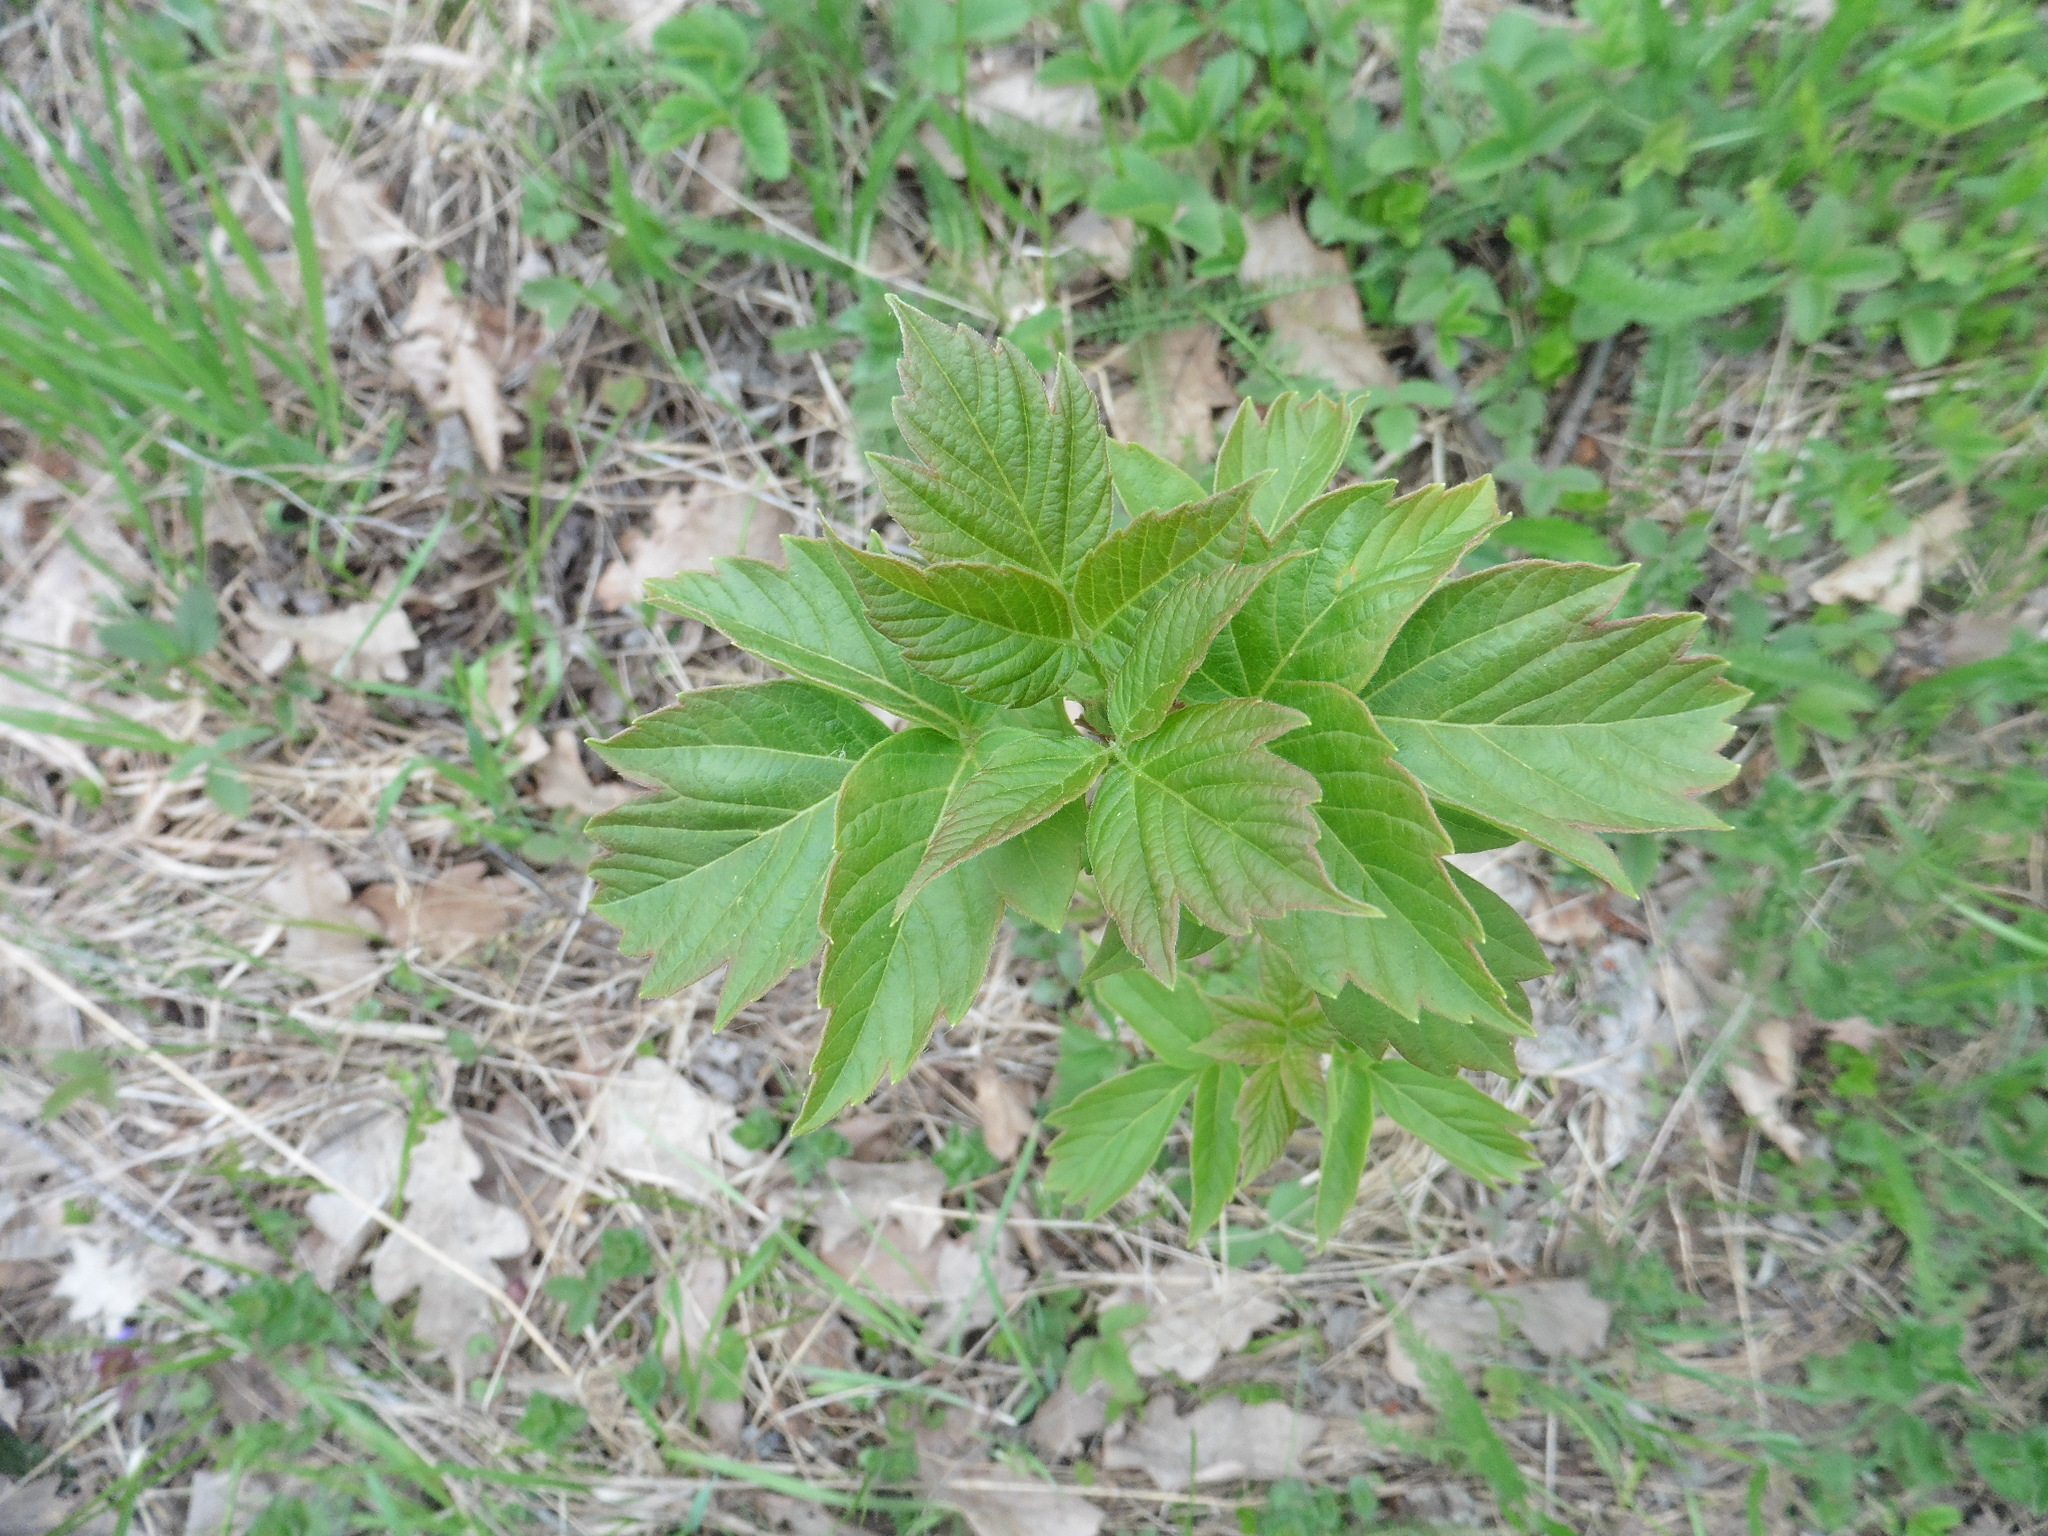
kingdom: Plantae
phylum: Tracheophyta
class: Magnoliopsida
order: Sapindales
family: Sapindaceae
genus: Acer
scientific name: Acer negundo
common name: Ashleaf maple
